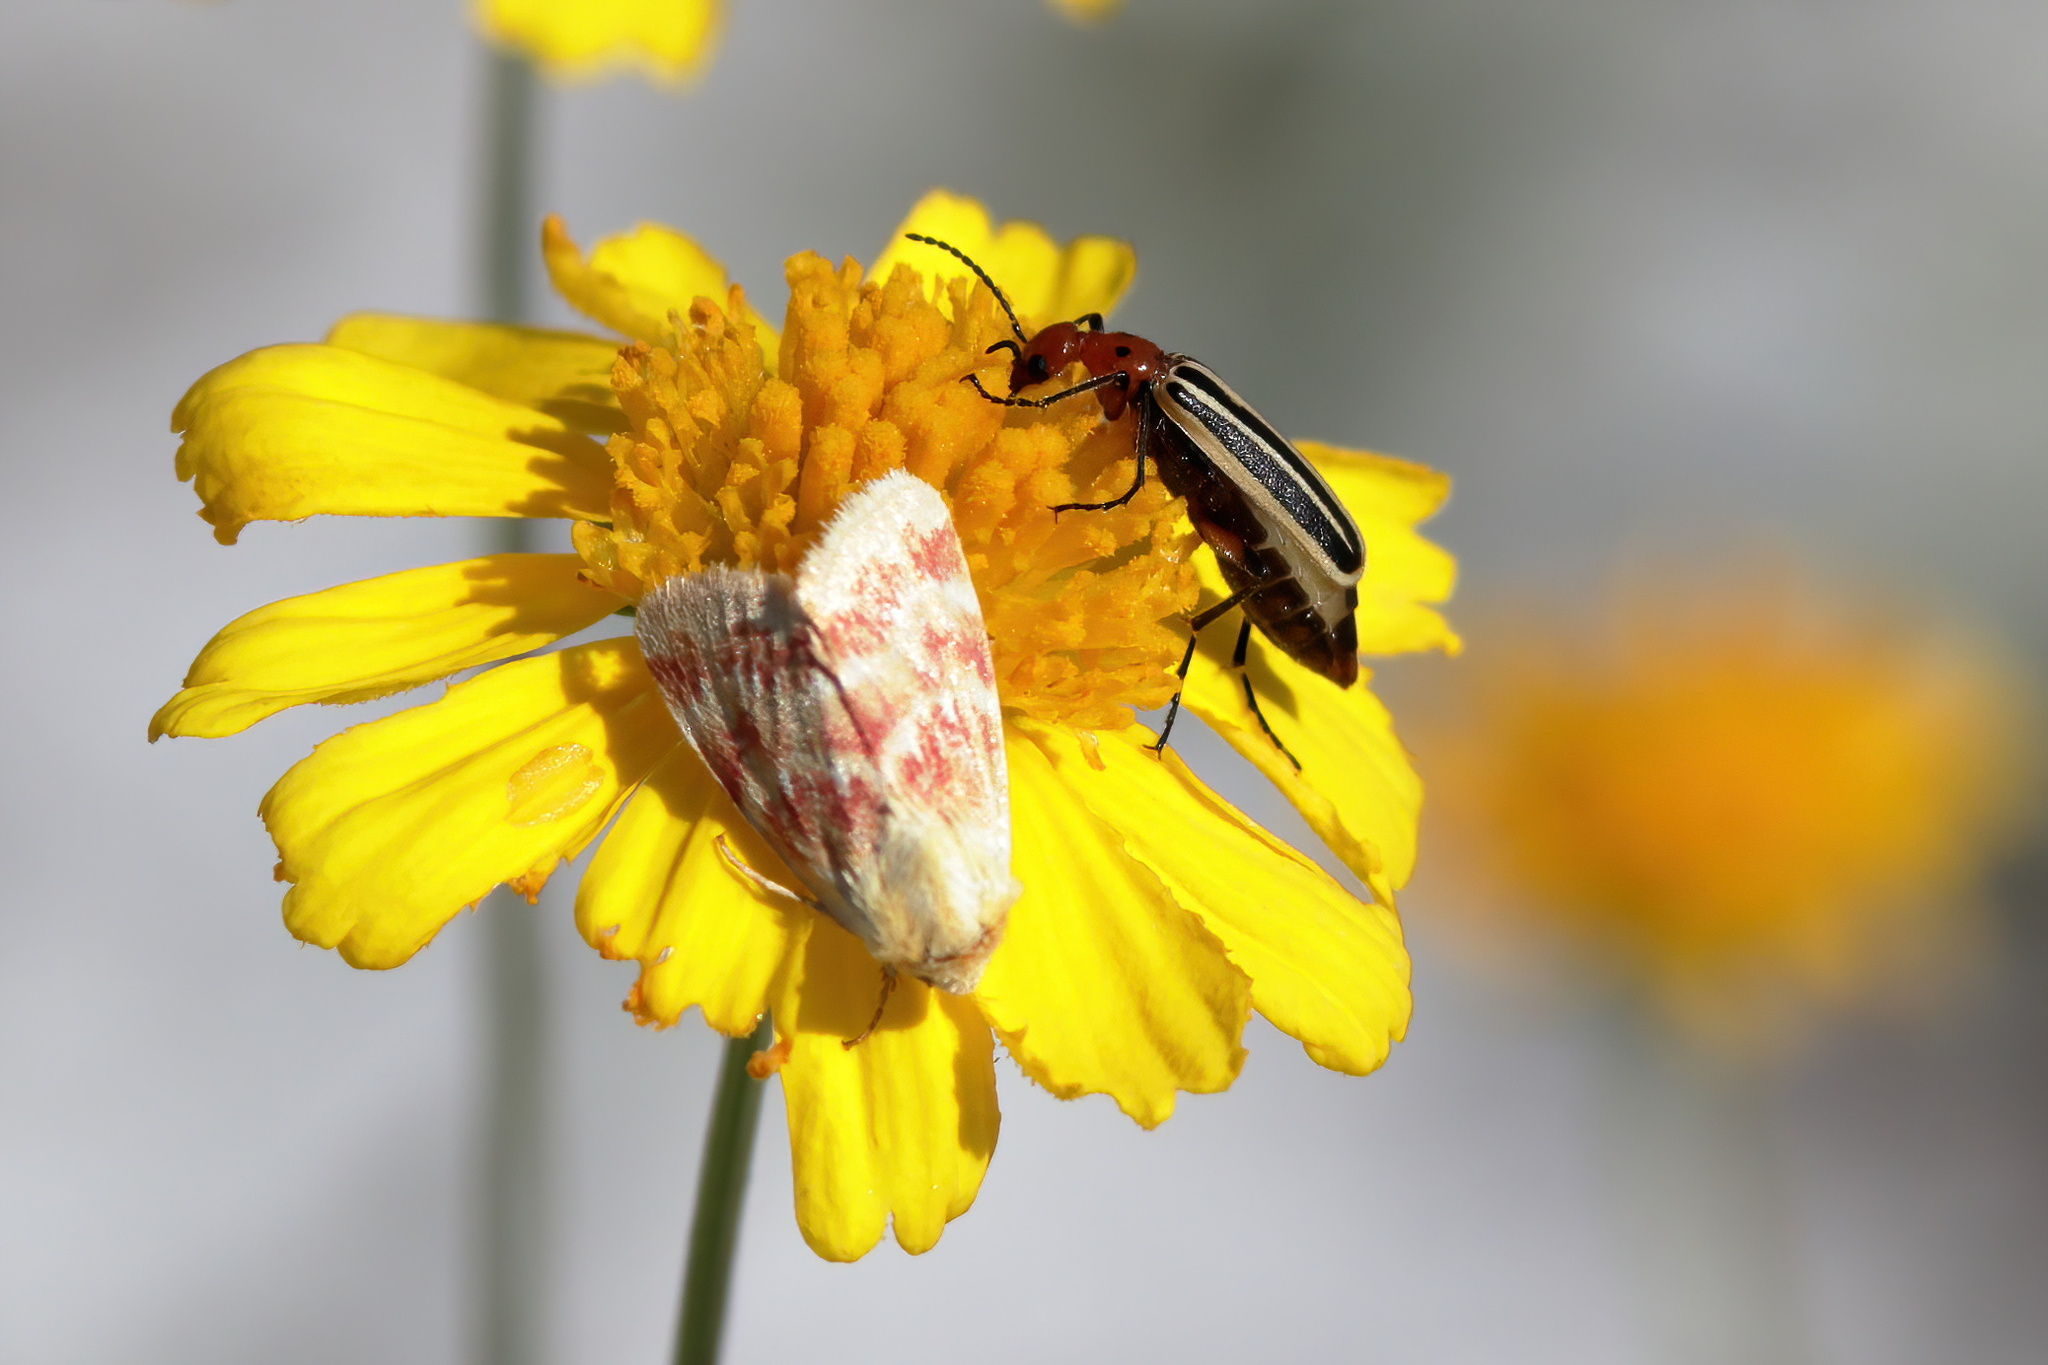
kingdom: Animalia
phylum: Arthropoda
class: Insecta
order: Lepidoptera
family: Noctuidae
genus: Schinia
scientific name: Schinia fulleri
